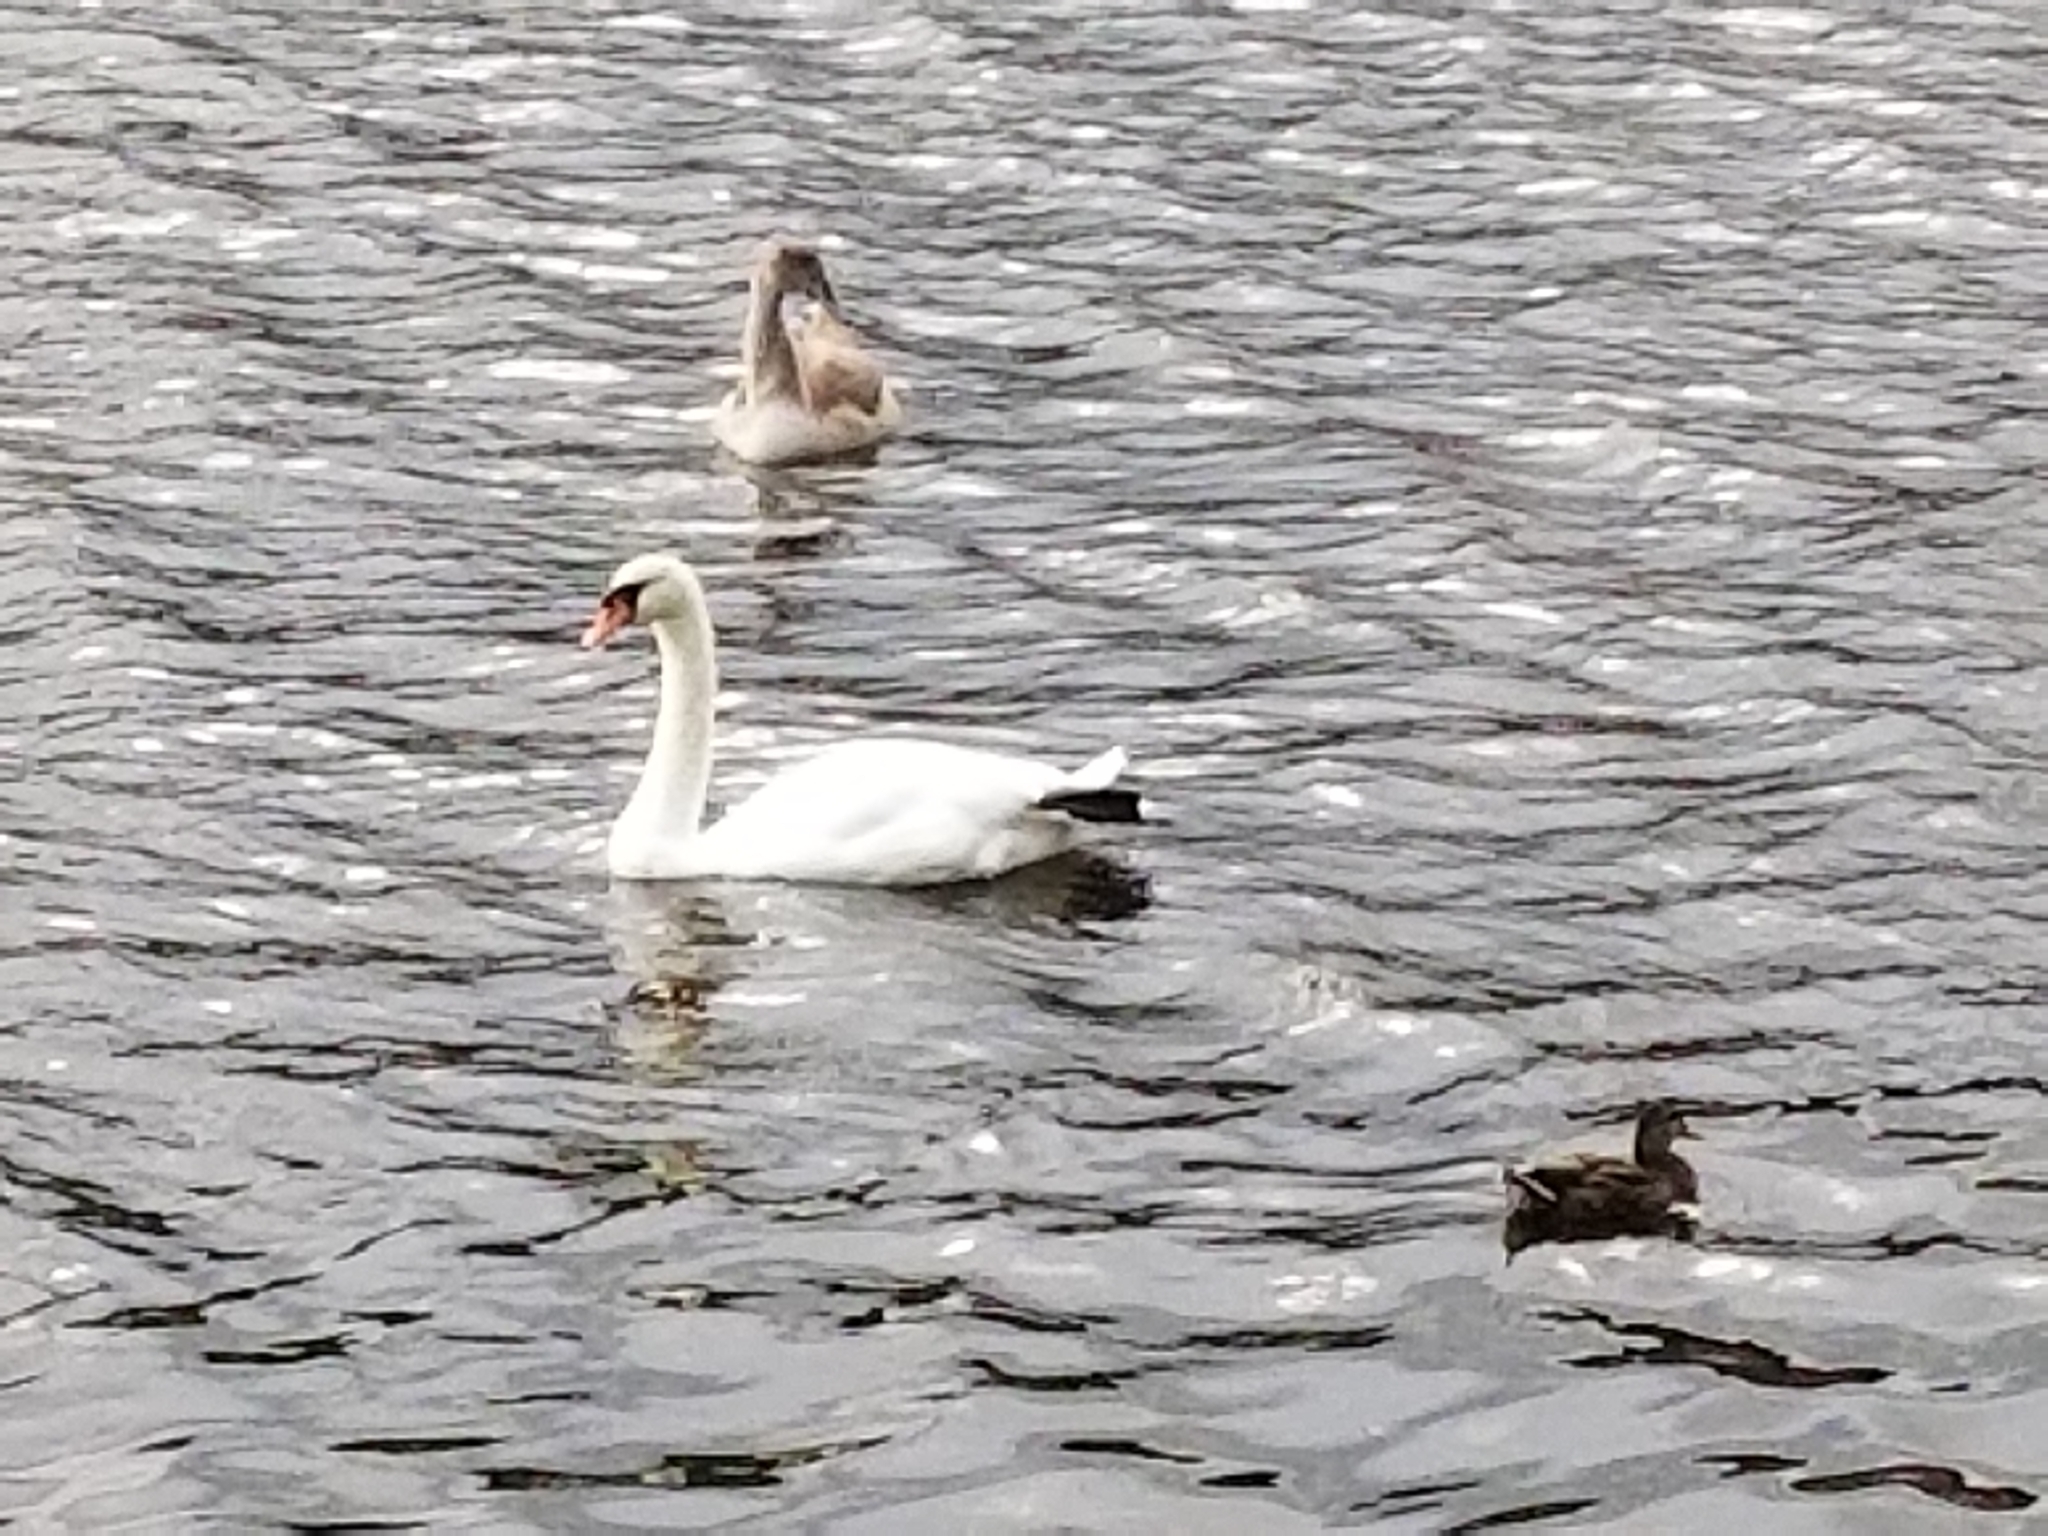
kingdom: Animalia
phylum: Chordata
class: Aves
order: Anseriformes
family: Anatidae
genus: Cygnus
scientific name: Cygnus olor
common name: Mute swan
